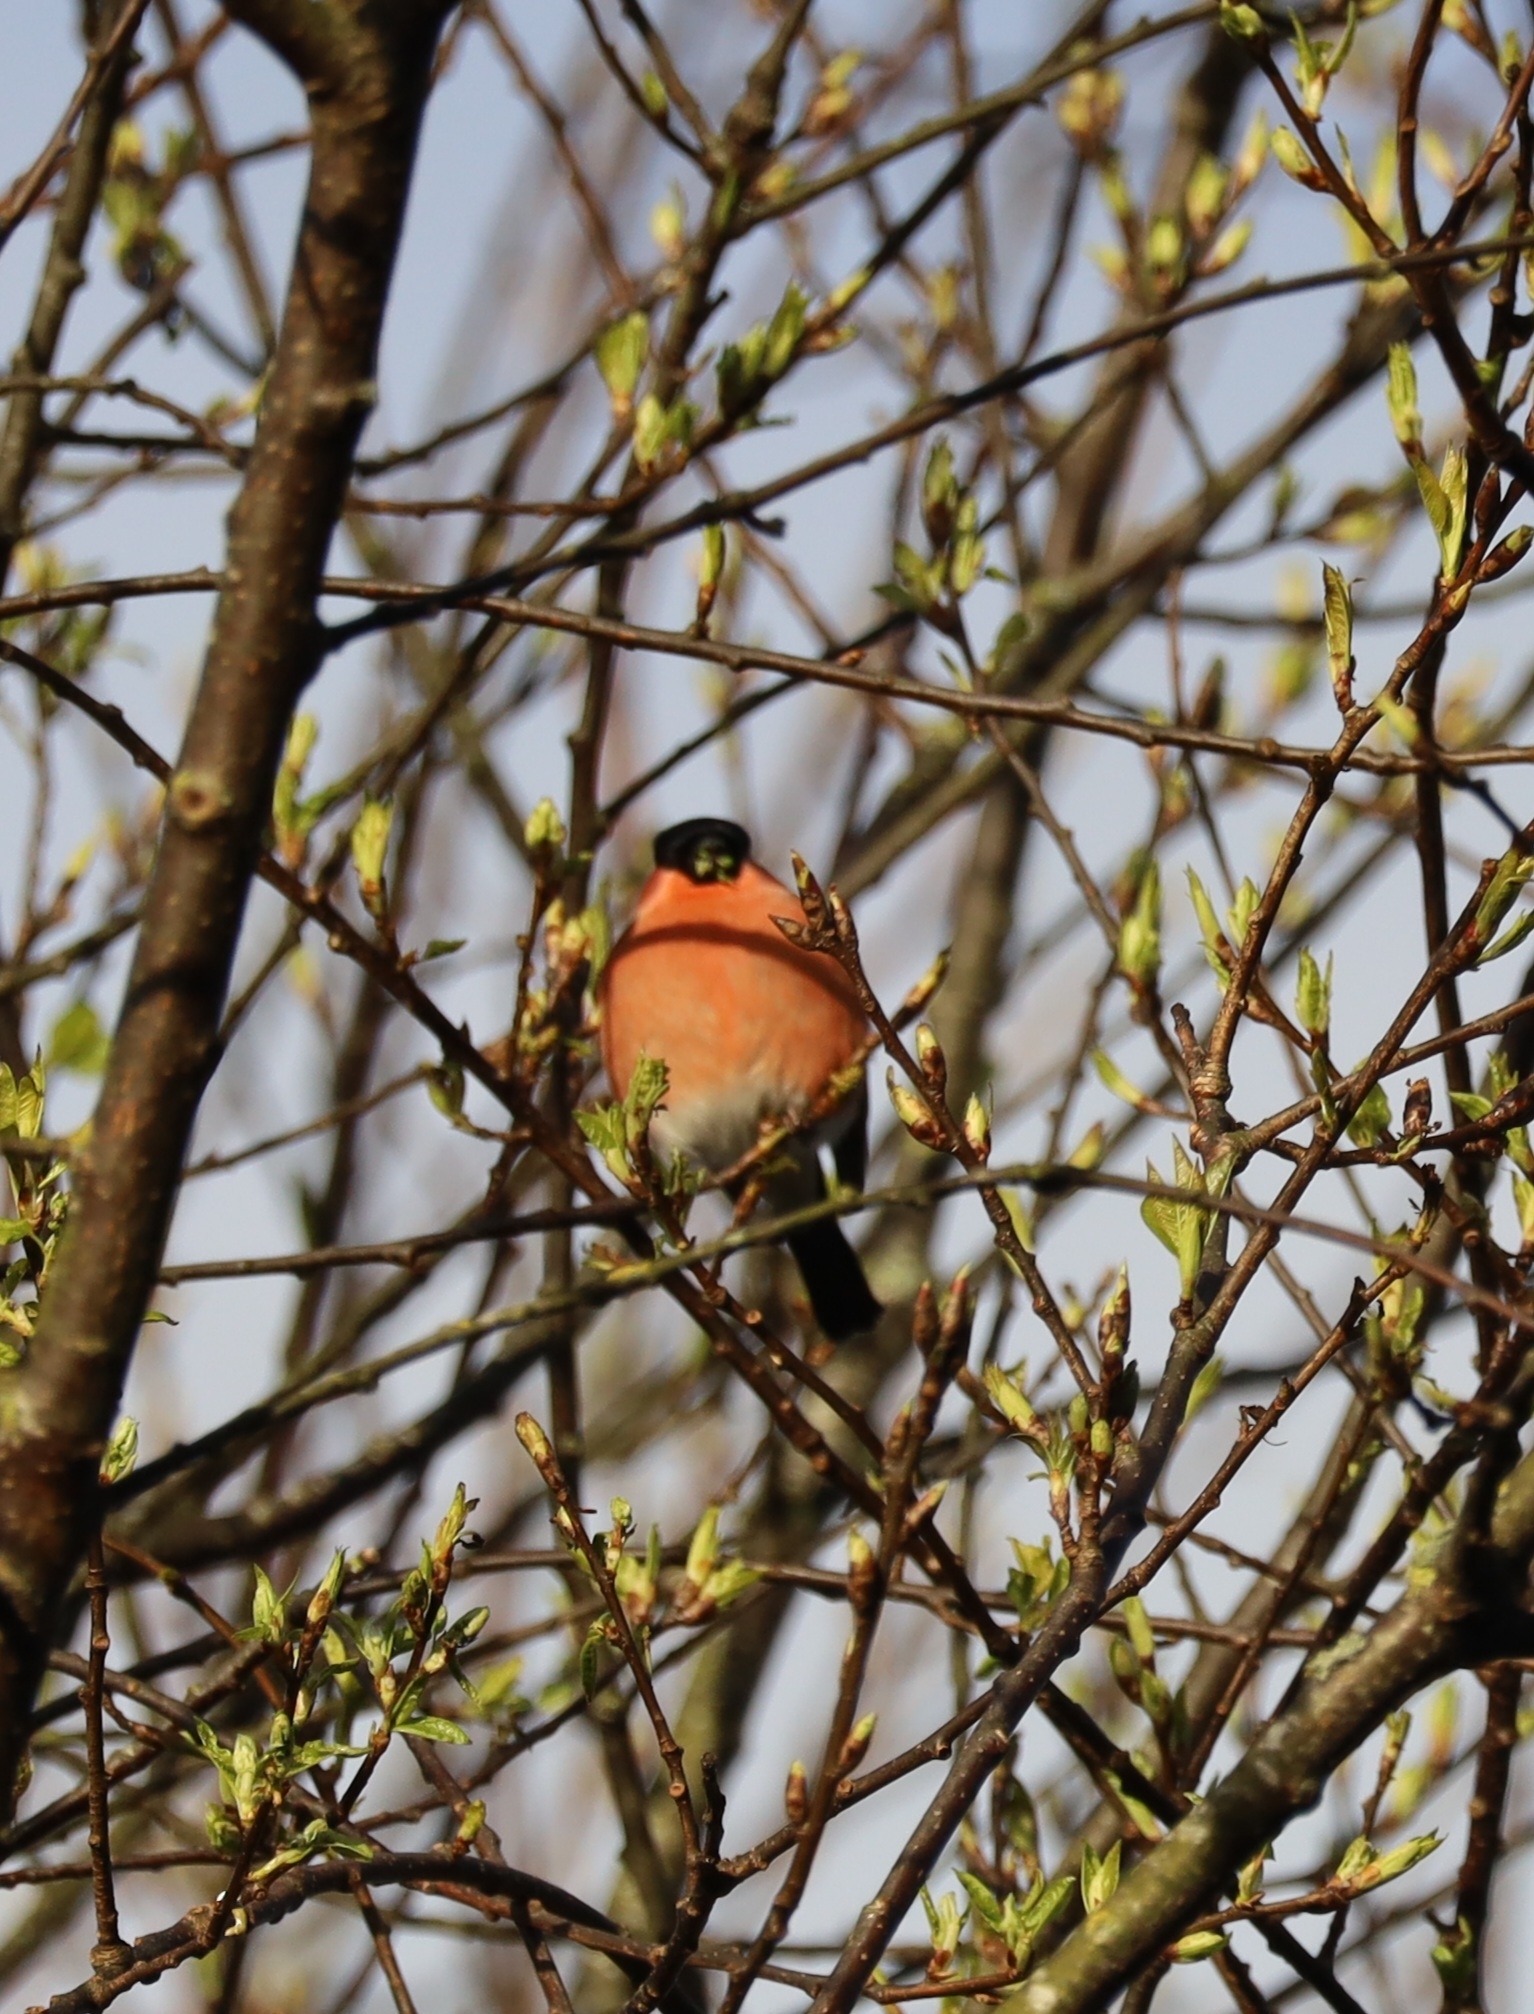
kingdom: Animalia
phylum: Chordata
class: Aves
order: Passeriformes
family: Fringillidae
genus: Pyrrhula
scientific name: Pyrrhula pyrrhula
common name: Eurasian bullfinch
